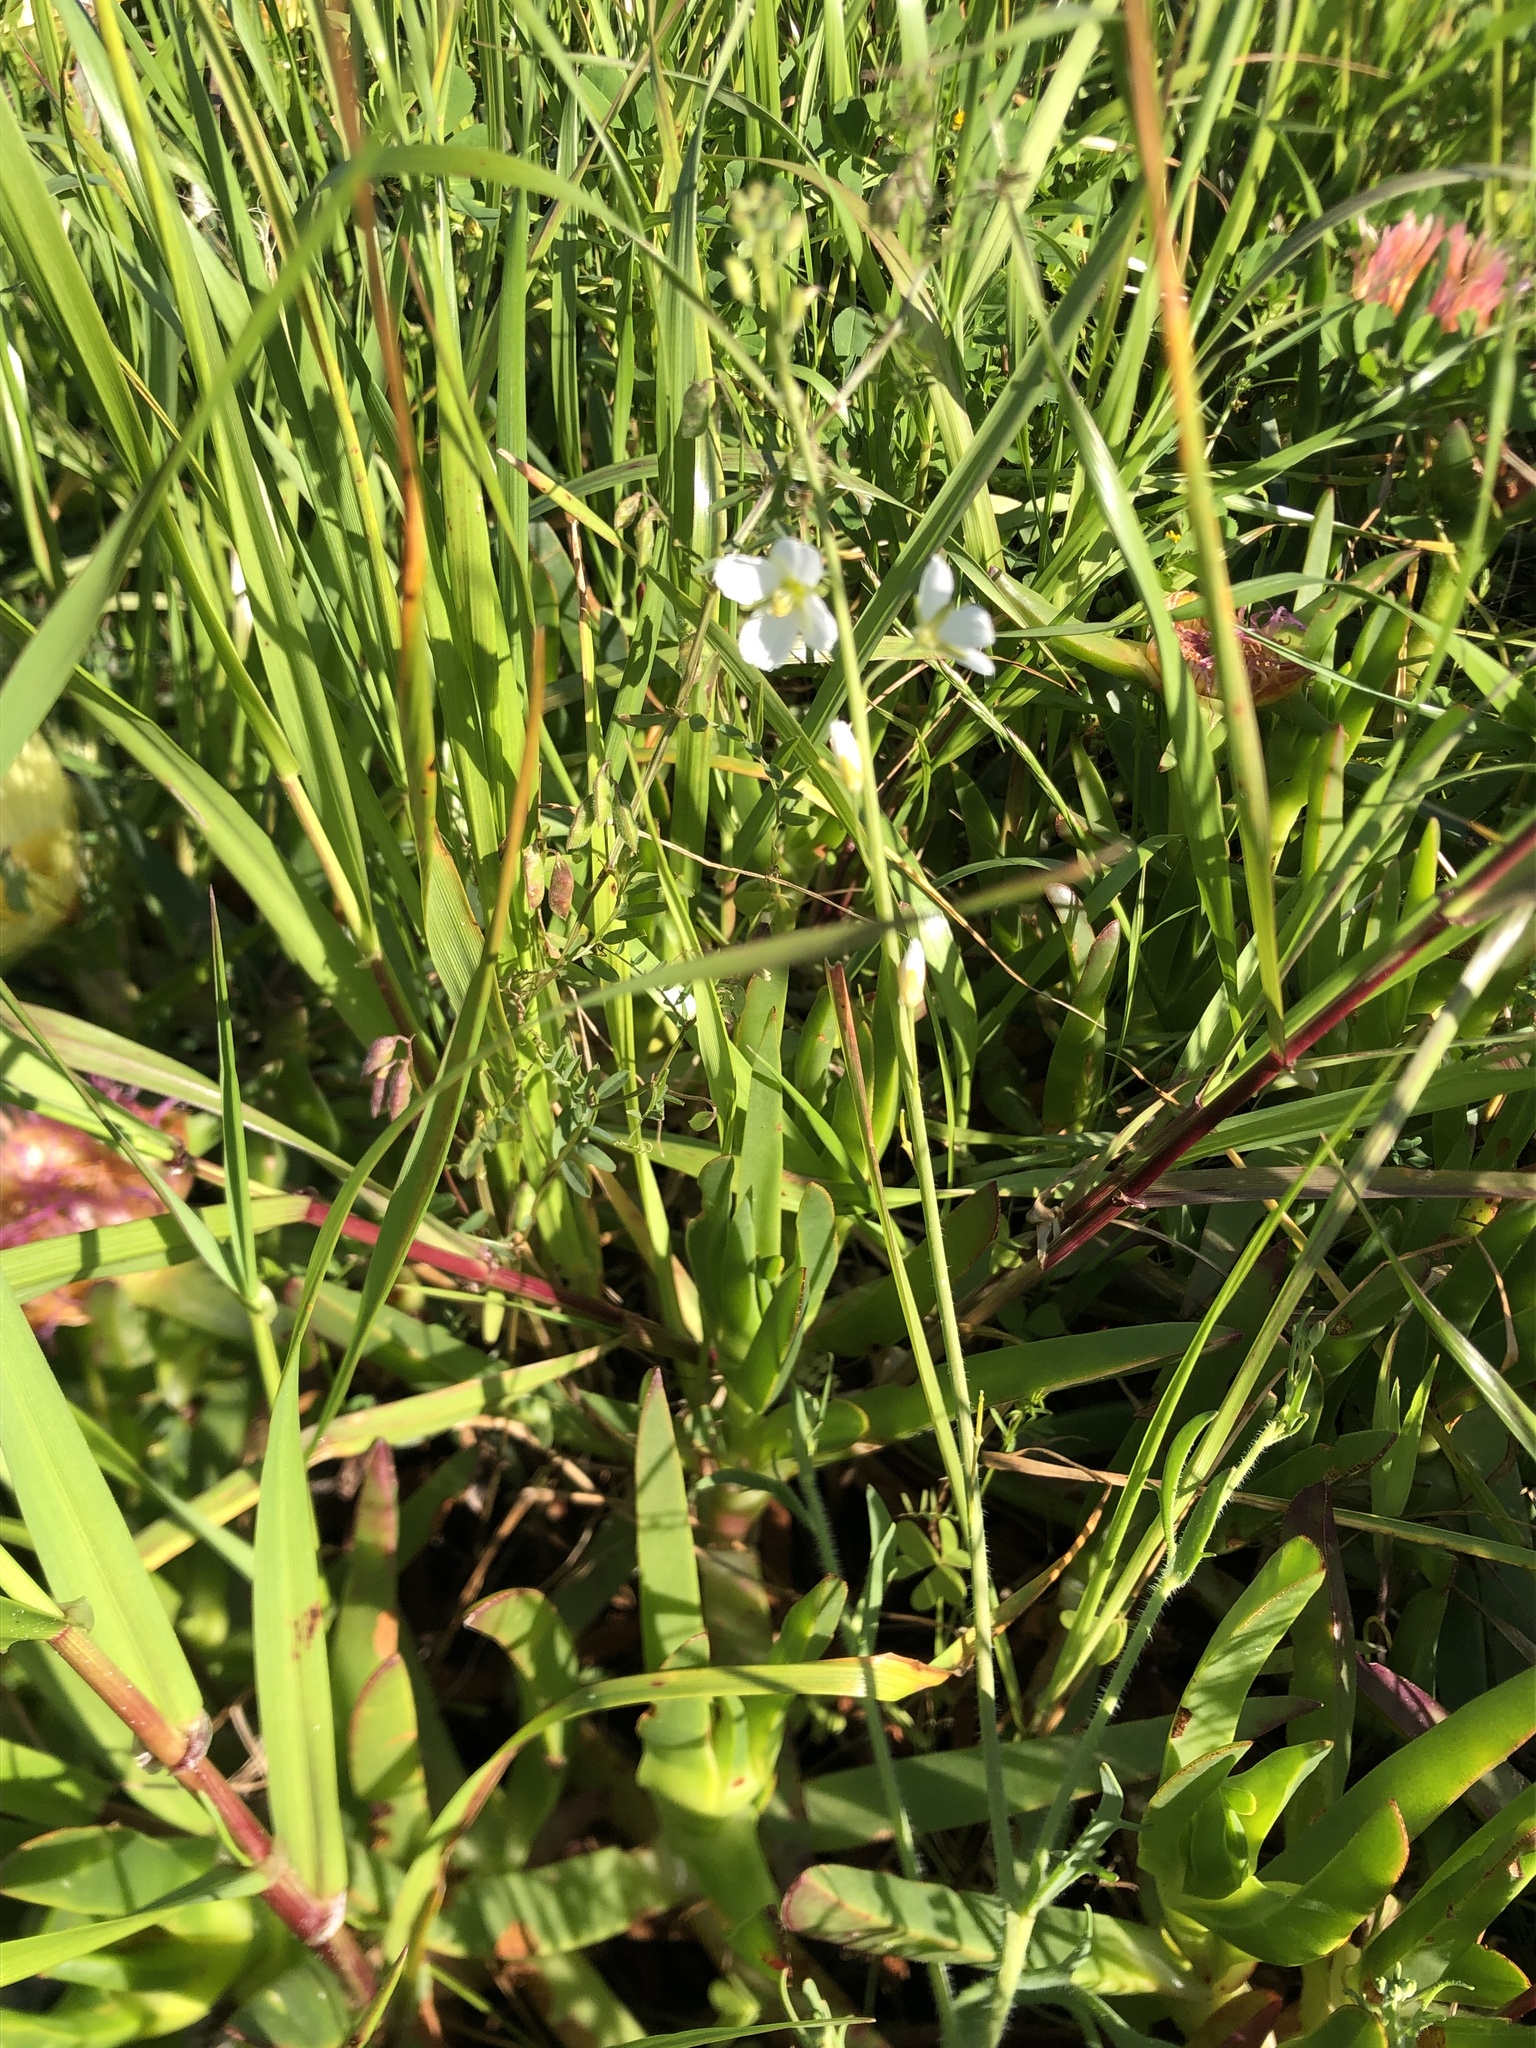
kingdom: Plantae
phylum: Tracheophyta
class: Magnoliopsida
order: Brassicales
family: Brassicaceae
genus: Heliophila
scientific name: Heliophila africana
